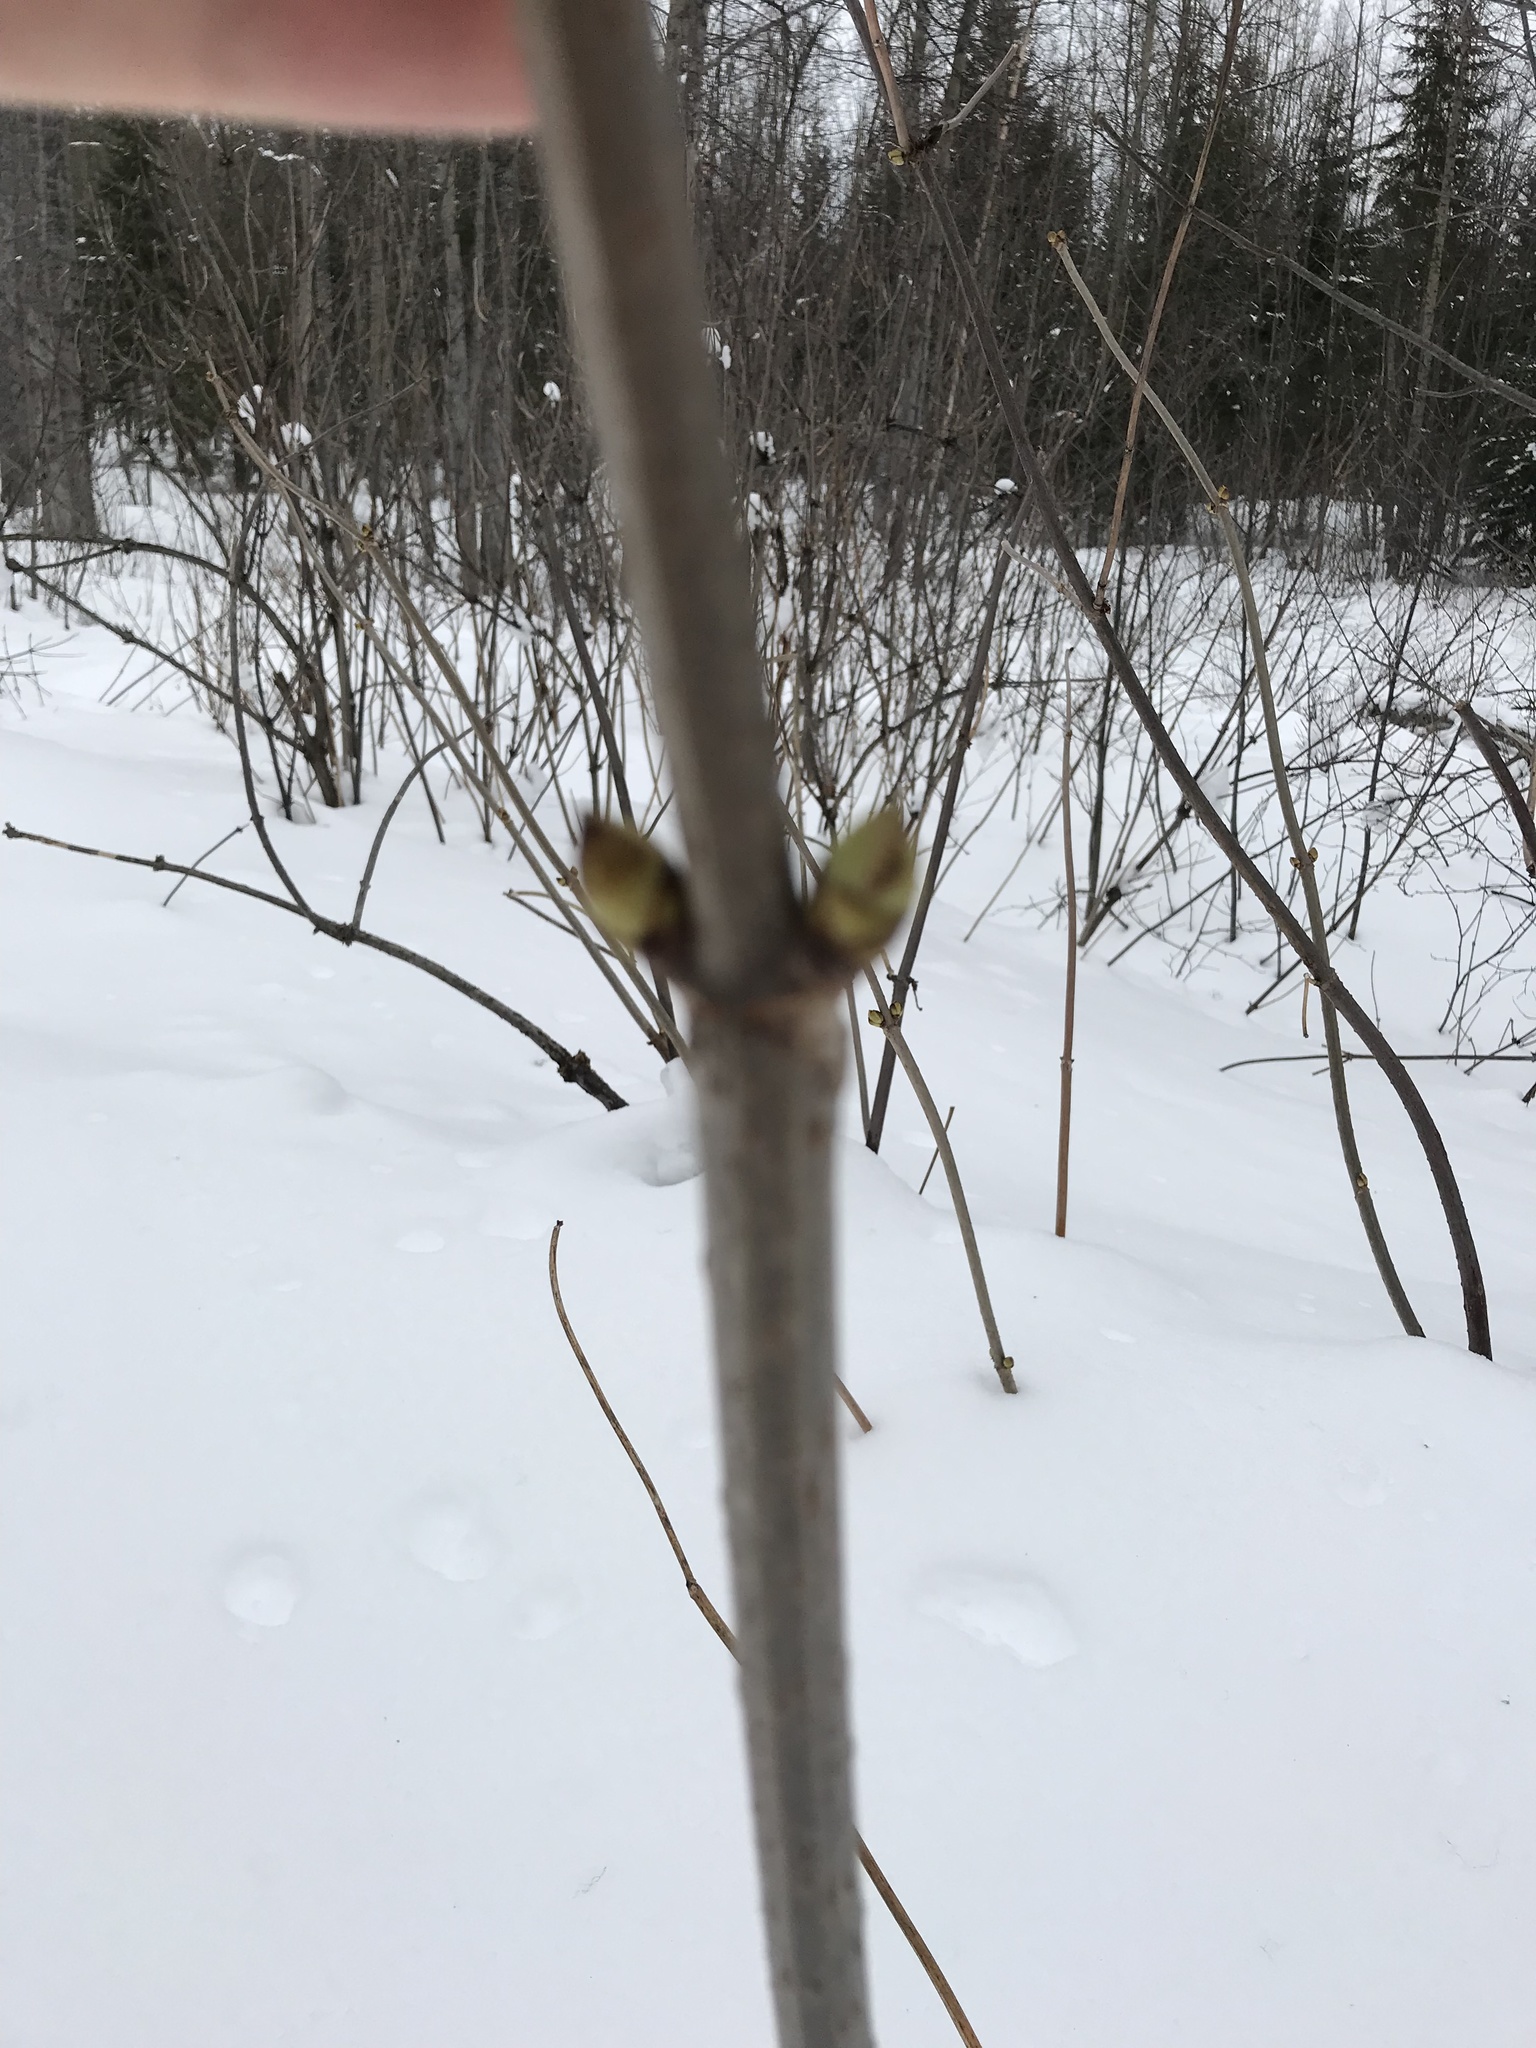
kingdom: Plantae
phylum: Tracheophyta
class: Magnoliopsida
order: Dipsacales
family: Viburnaceae
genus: Sambucus
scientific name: Sambucus racemosa
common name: Red-berried elder
